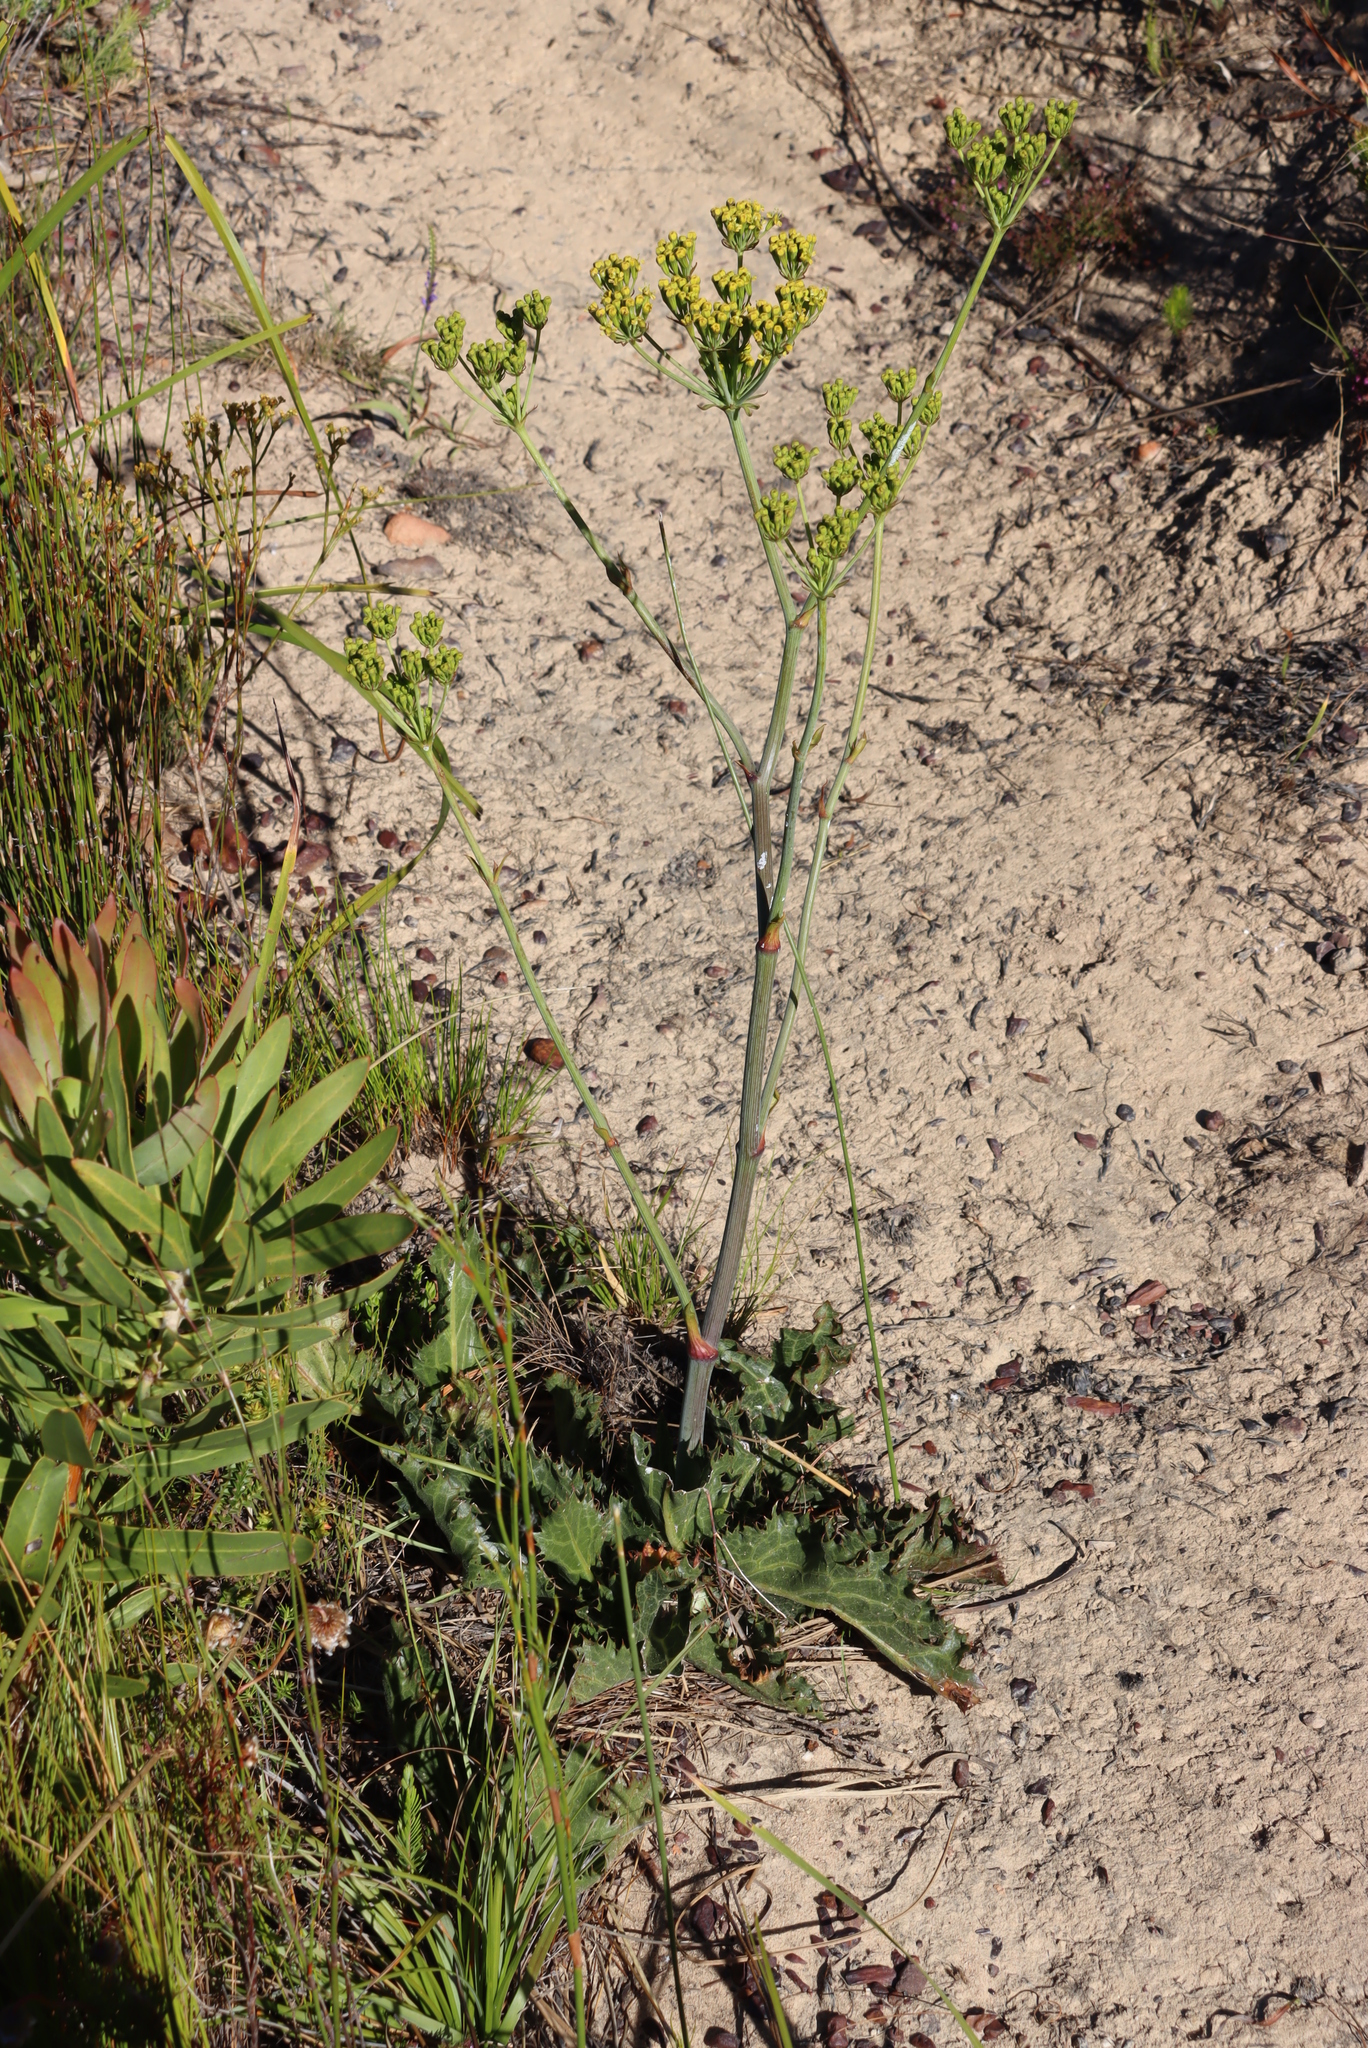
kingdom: Plantae
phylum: Tracheophyta
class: Magnoliopsida
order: Apiales
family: Apiaceae
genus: Lichtensteinia
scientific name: Lichtensteinia lacera
